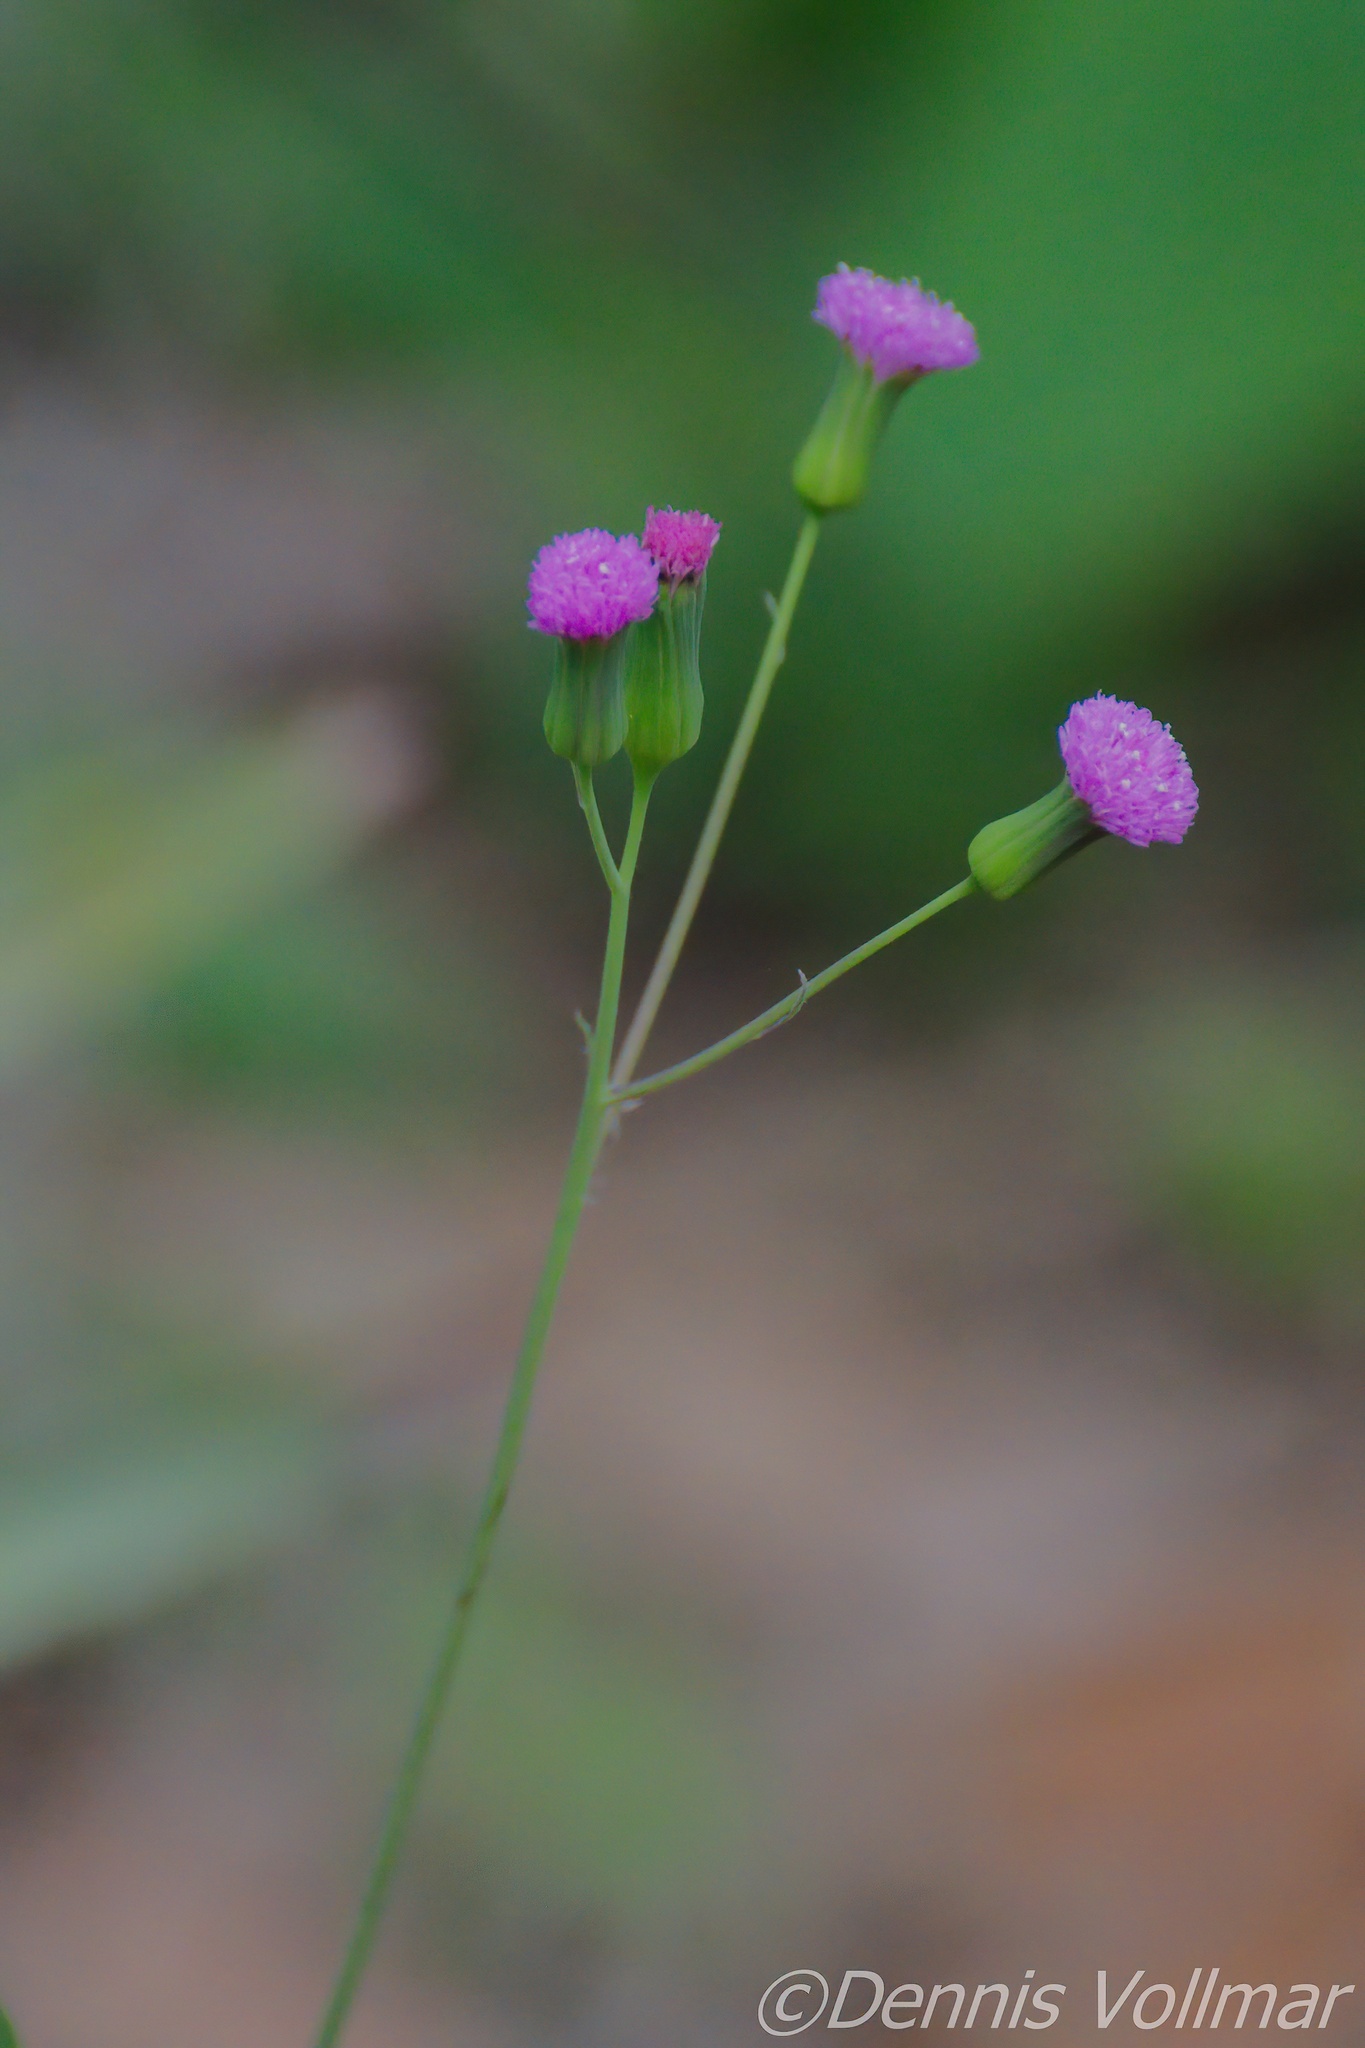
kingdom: Plantae
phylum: Tracheophyta
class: Magnoliopsida
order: Asterales
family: Asteraceae
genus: Emilia
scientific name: Emilia sonchifolia
